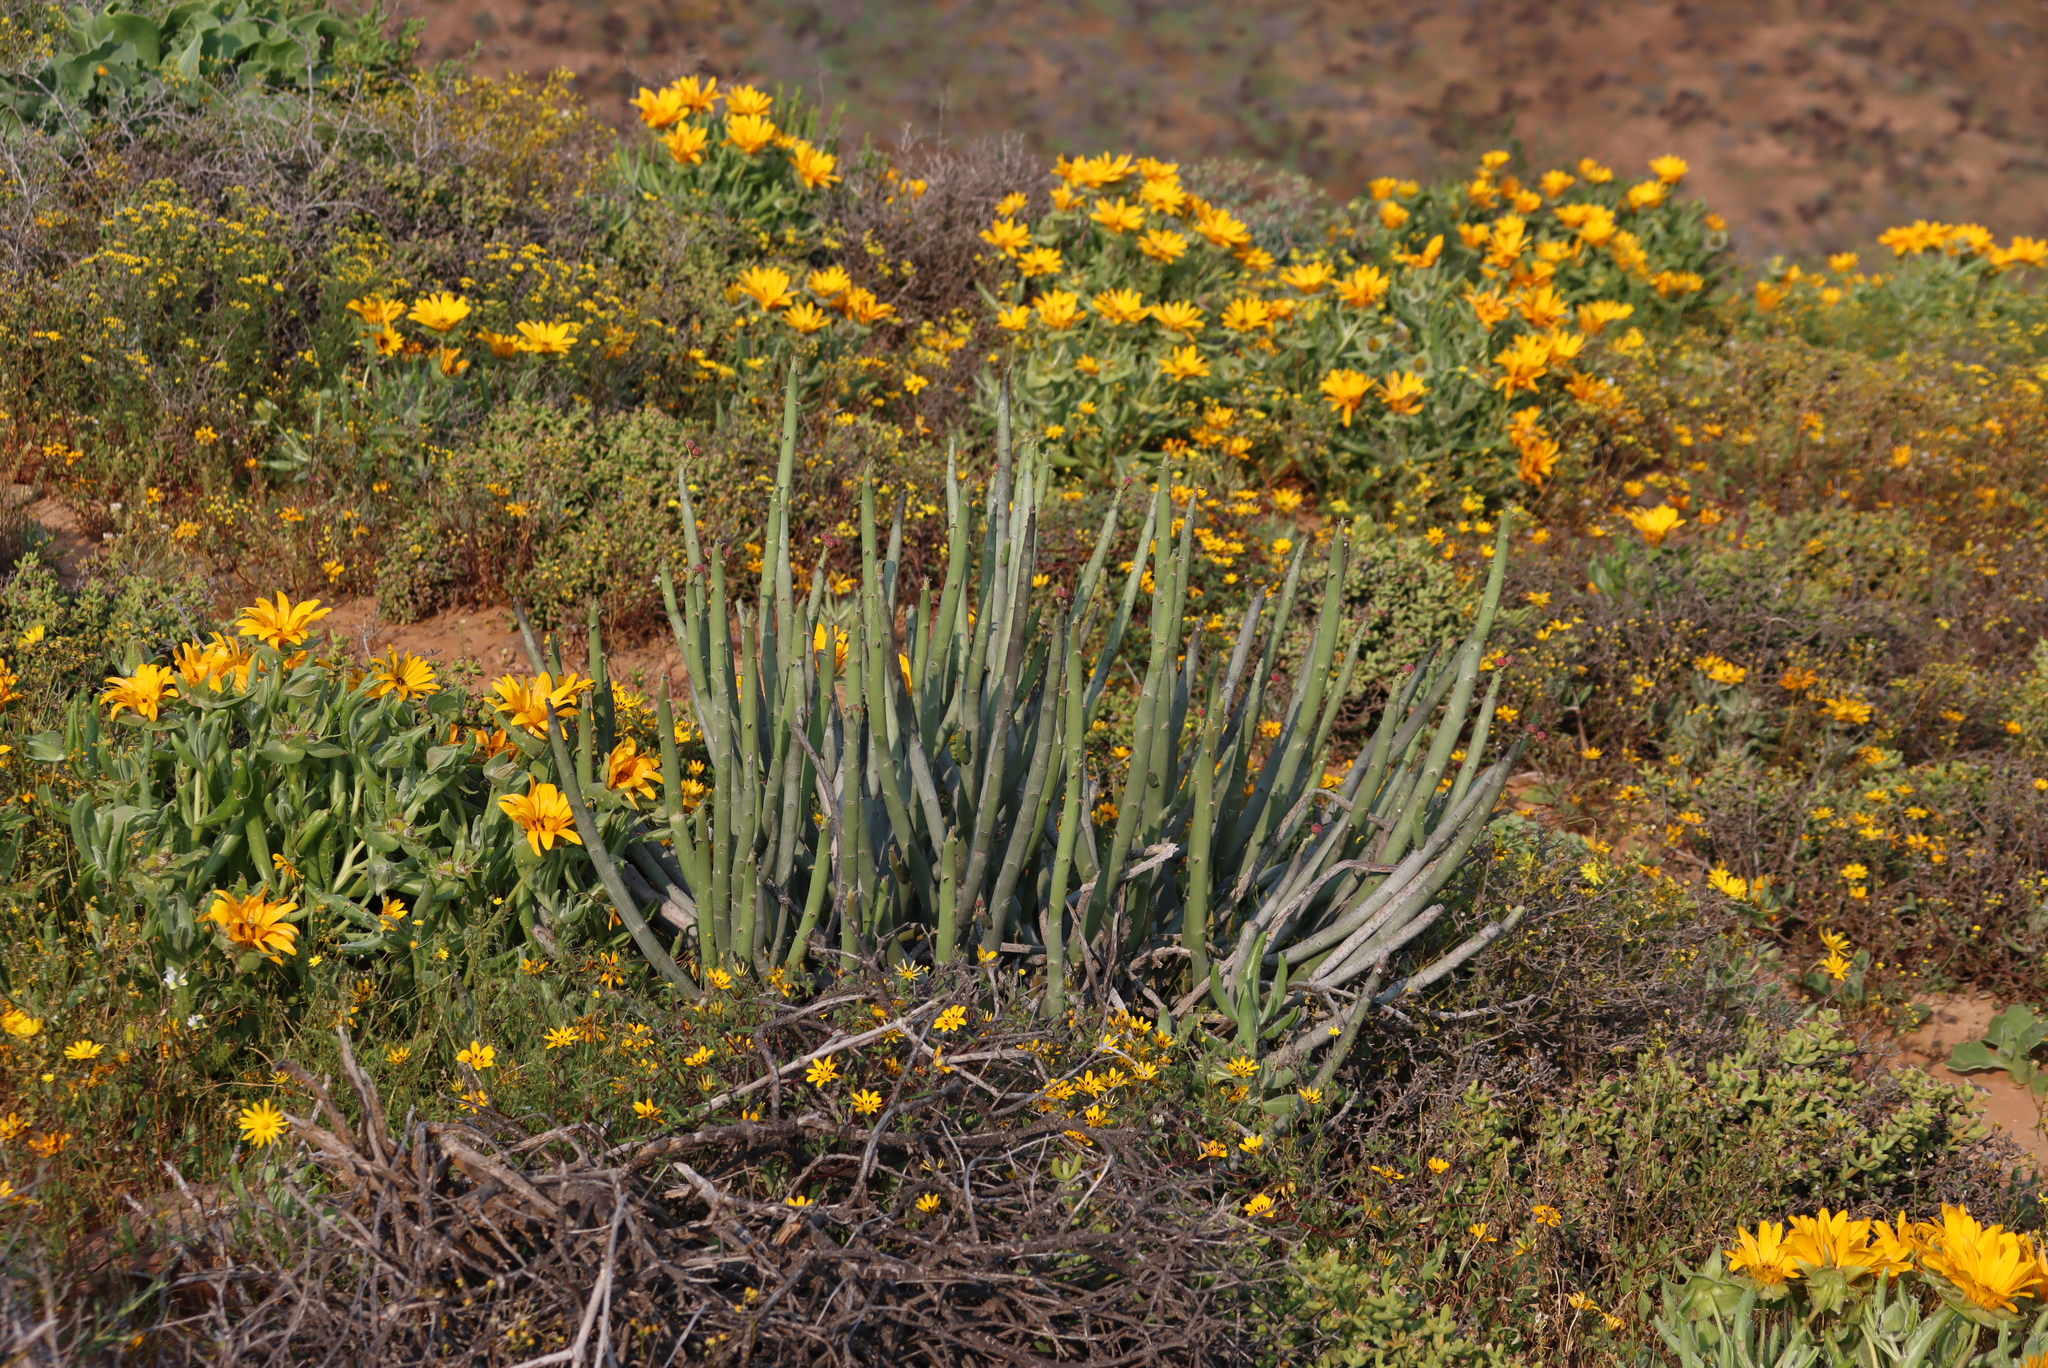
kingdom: Plantae
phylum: Tracheophyta
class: Magnoliopsida
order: Malpighiales
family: Euphorbiaceae
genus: Euphorbia
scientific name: Euphorbia stolonifera
